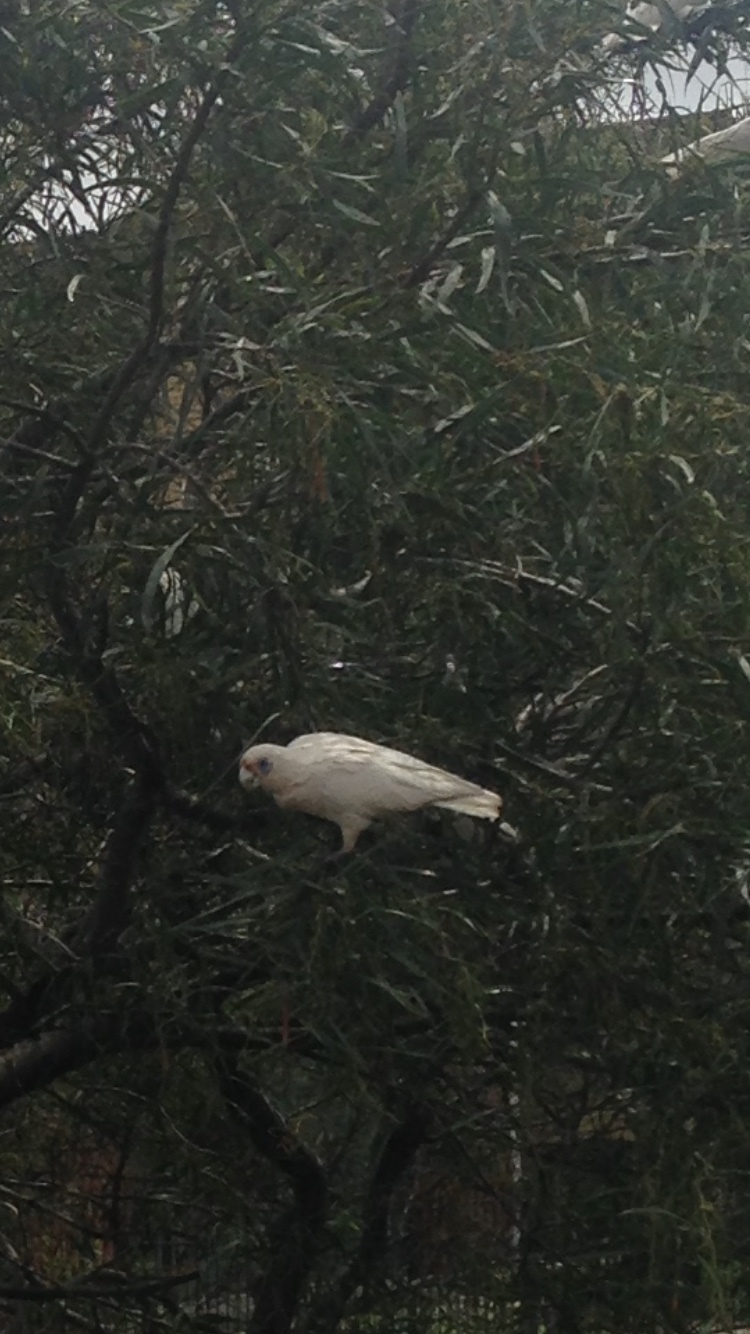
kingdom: Animalia
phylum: Chordata
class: Aves
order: Psittaciformes
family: Psittacidae
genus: Cacatua
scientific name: Cacatua tenuirostris
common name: Long-billed corella
